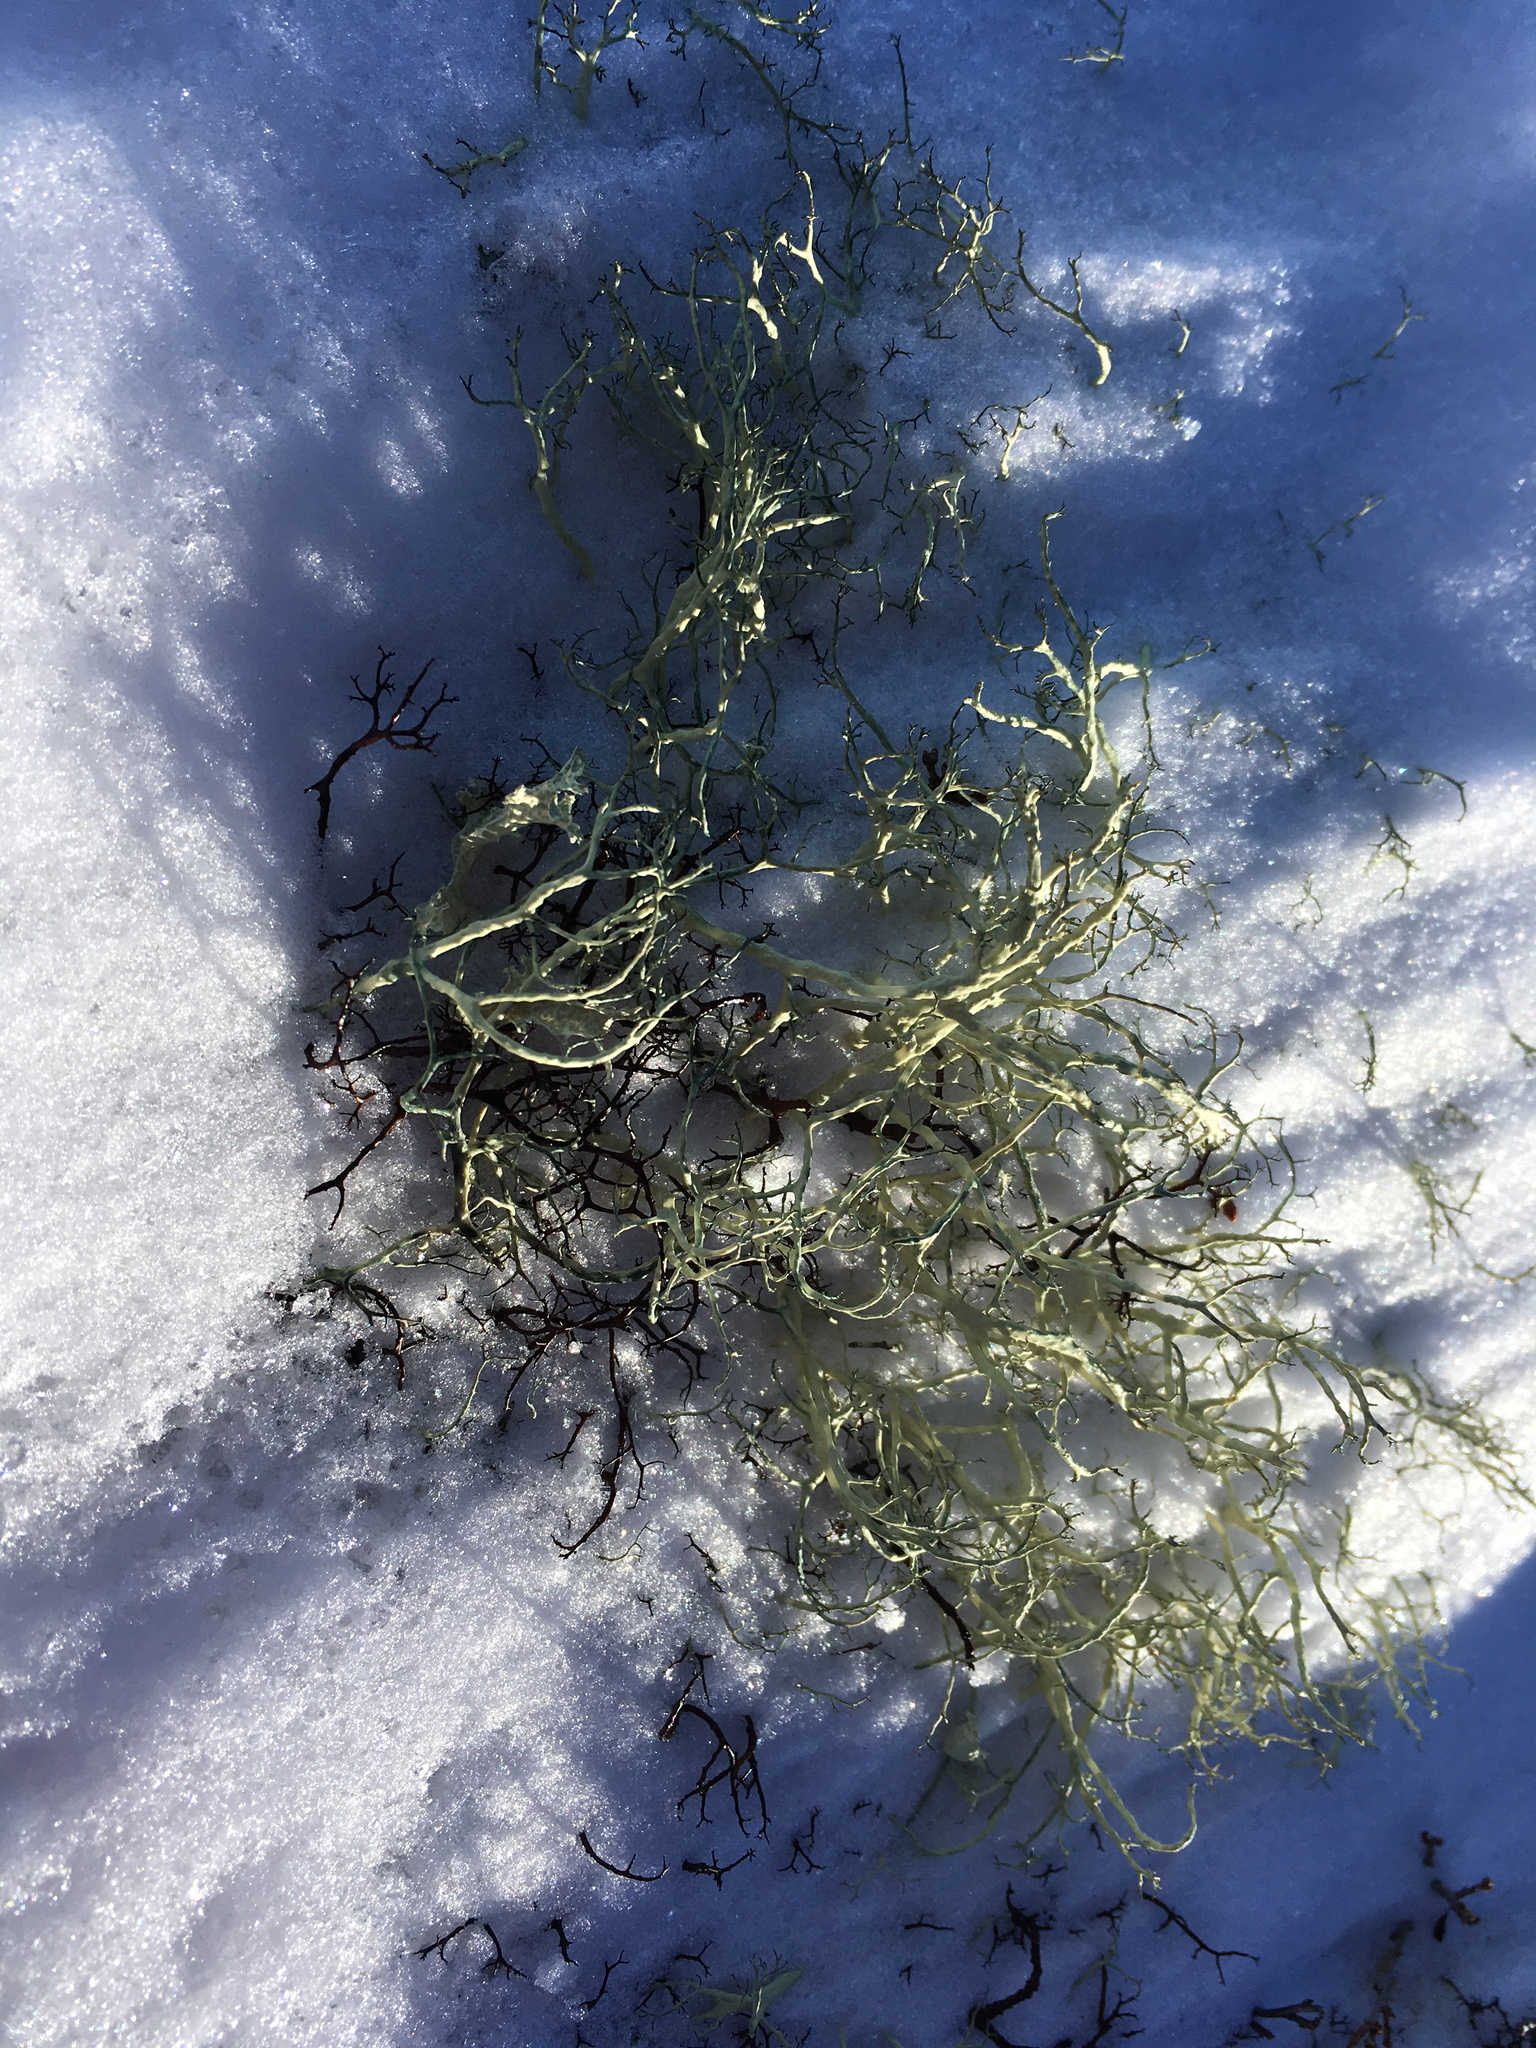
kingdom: Fungi
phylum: Ascomycota
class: Lecanoromycetes
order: Lecanorales
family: Parmeliaceae
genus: Alectoria
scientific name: Alectoria ochroleuca
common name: Alpine sulphur-tresses
